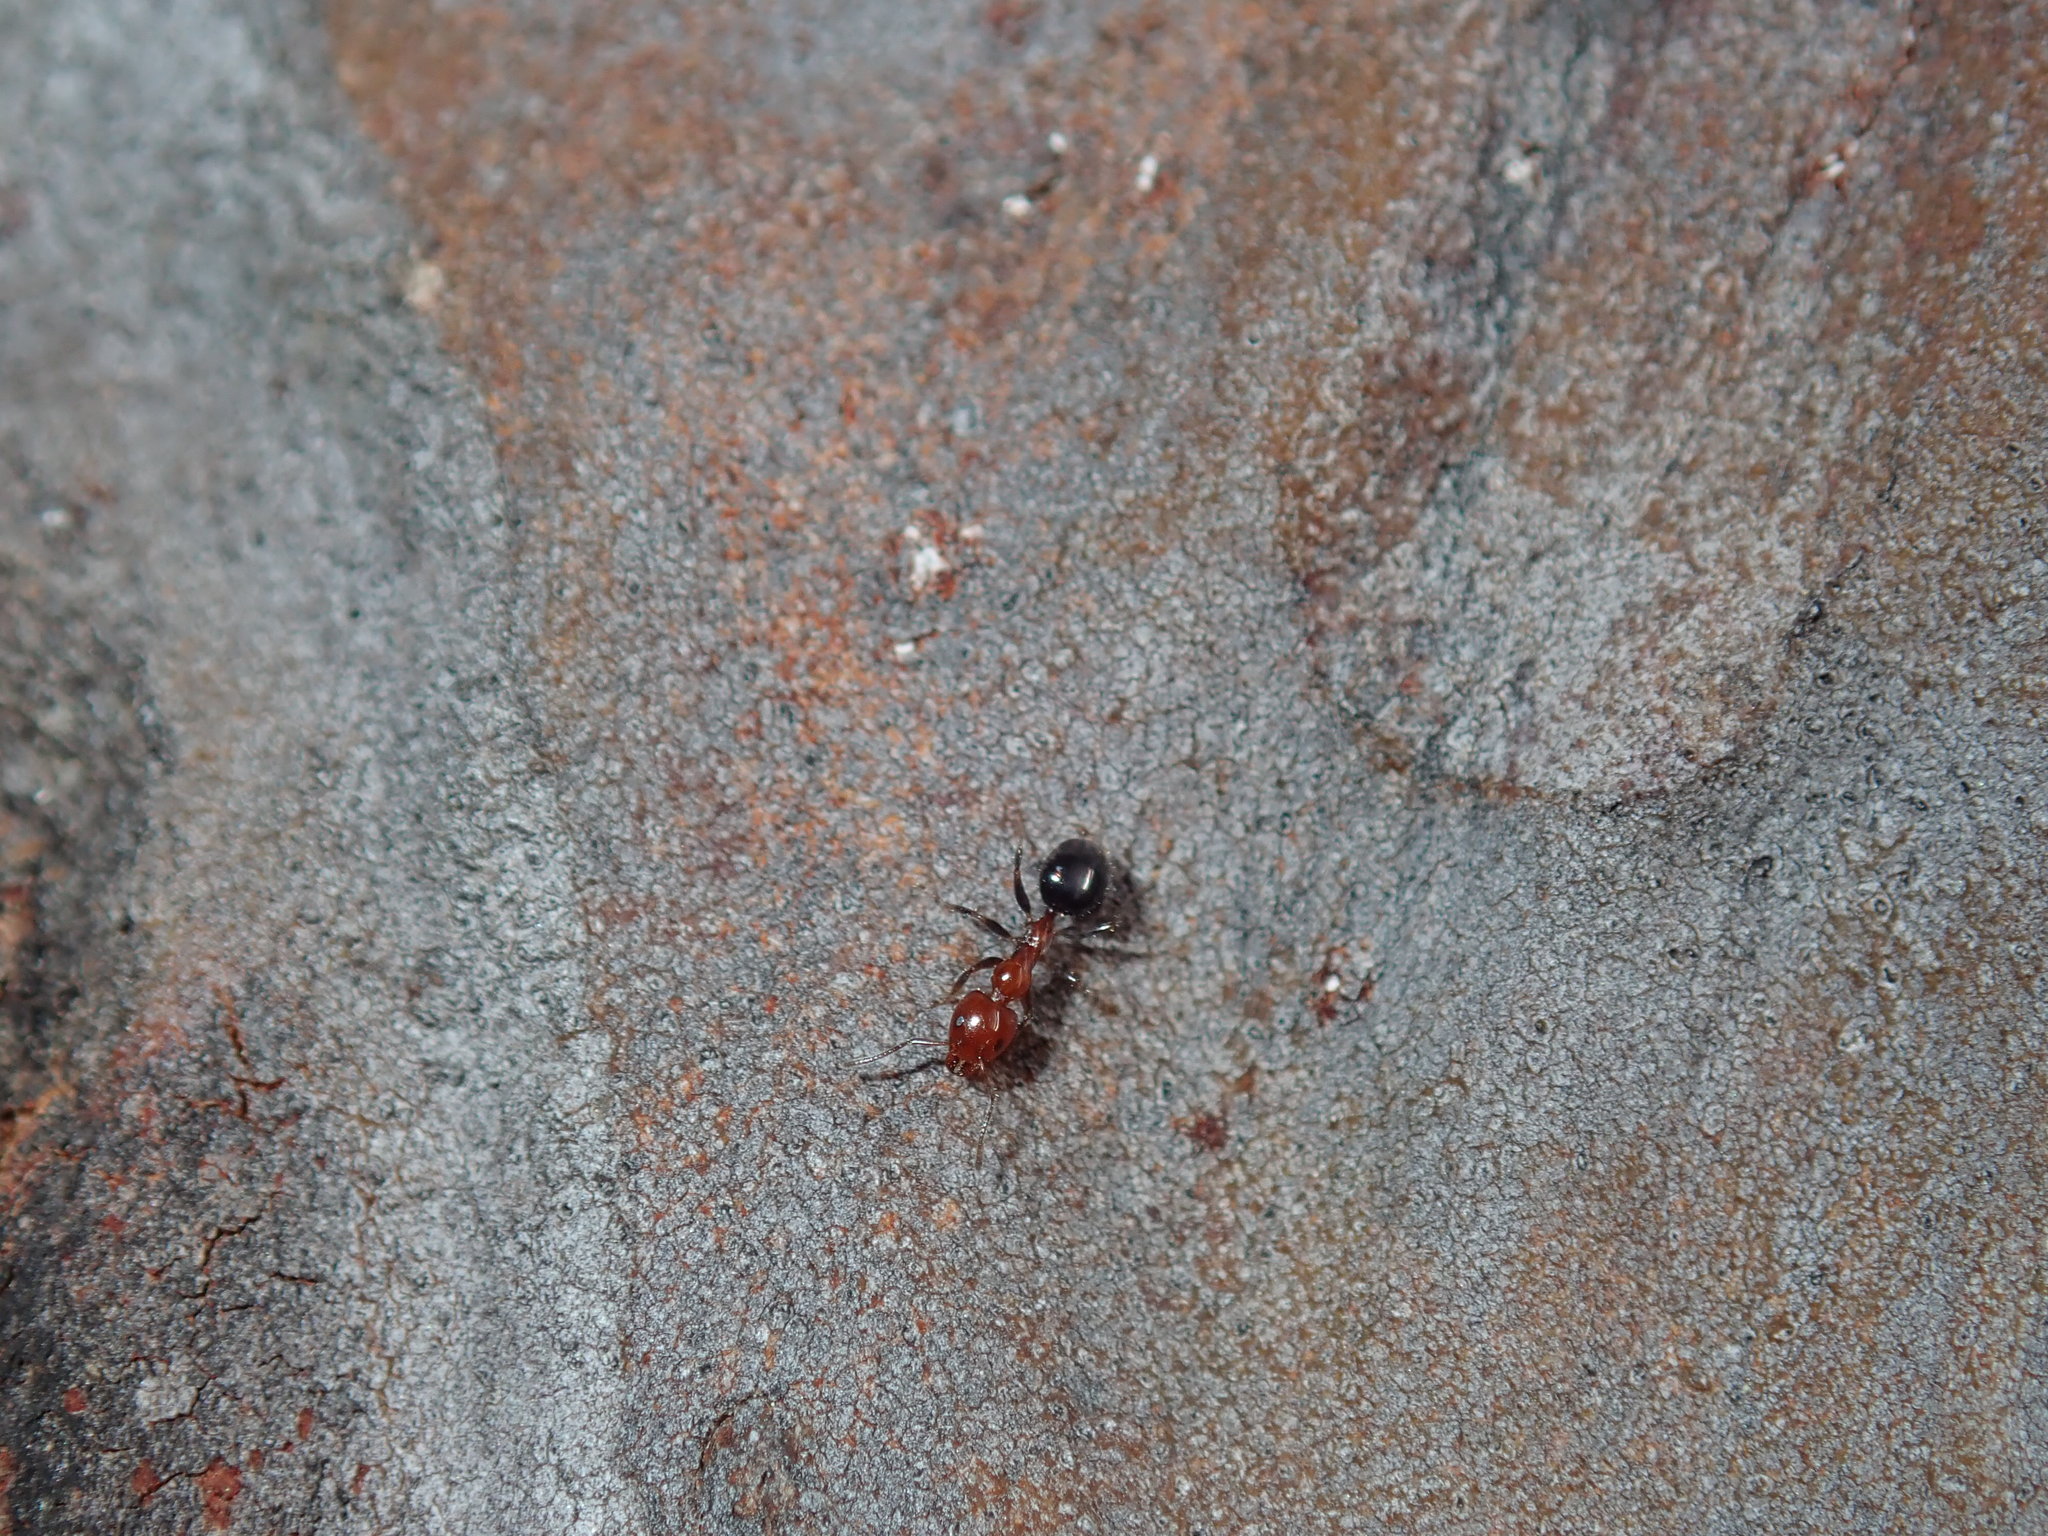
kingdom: Animalia
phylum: Arthropoda
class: Insecta
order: Hymenoptera
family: Formicidae
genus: Froggattella
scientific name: Froggattella kirbii
